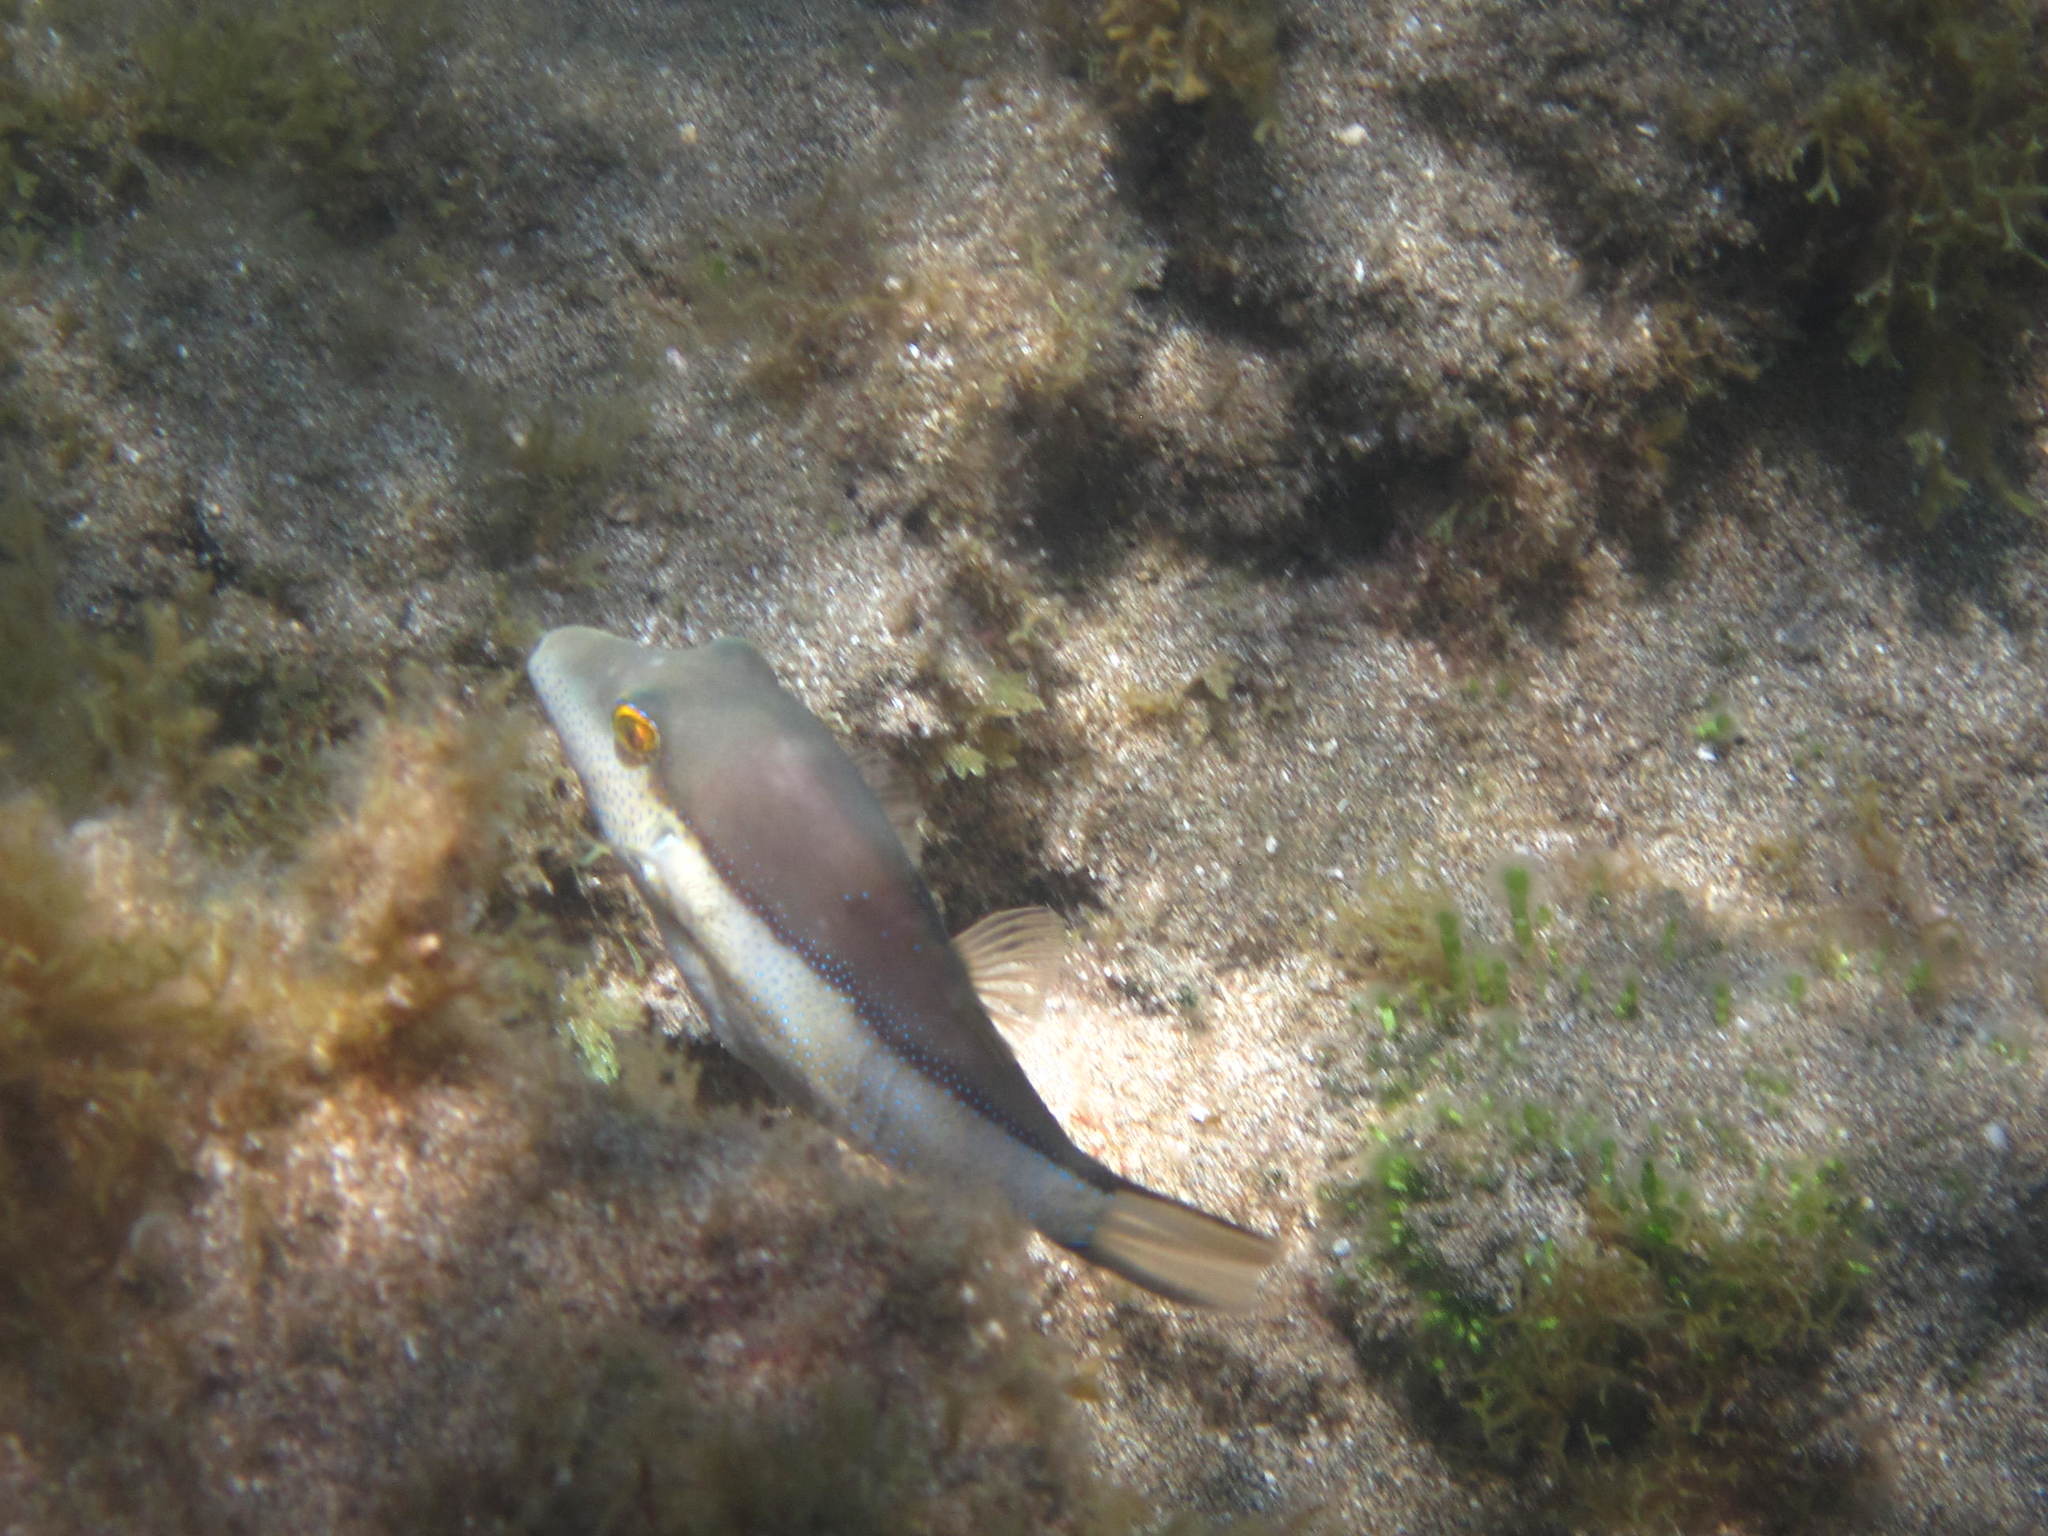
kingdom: Animalia
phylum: Chordata
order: Tetraodontiformes
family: Tetraodontidae
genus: Canthigaster
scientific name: Canthigaster capistrata
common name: Macaronesian sharpnose-puffer
